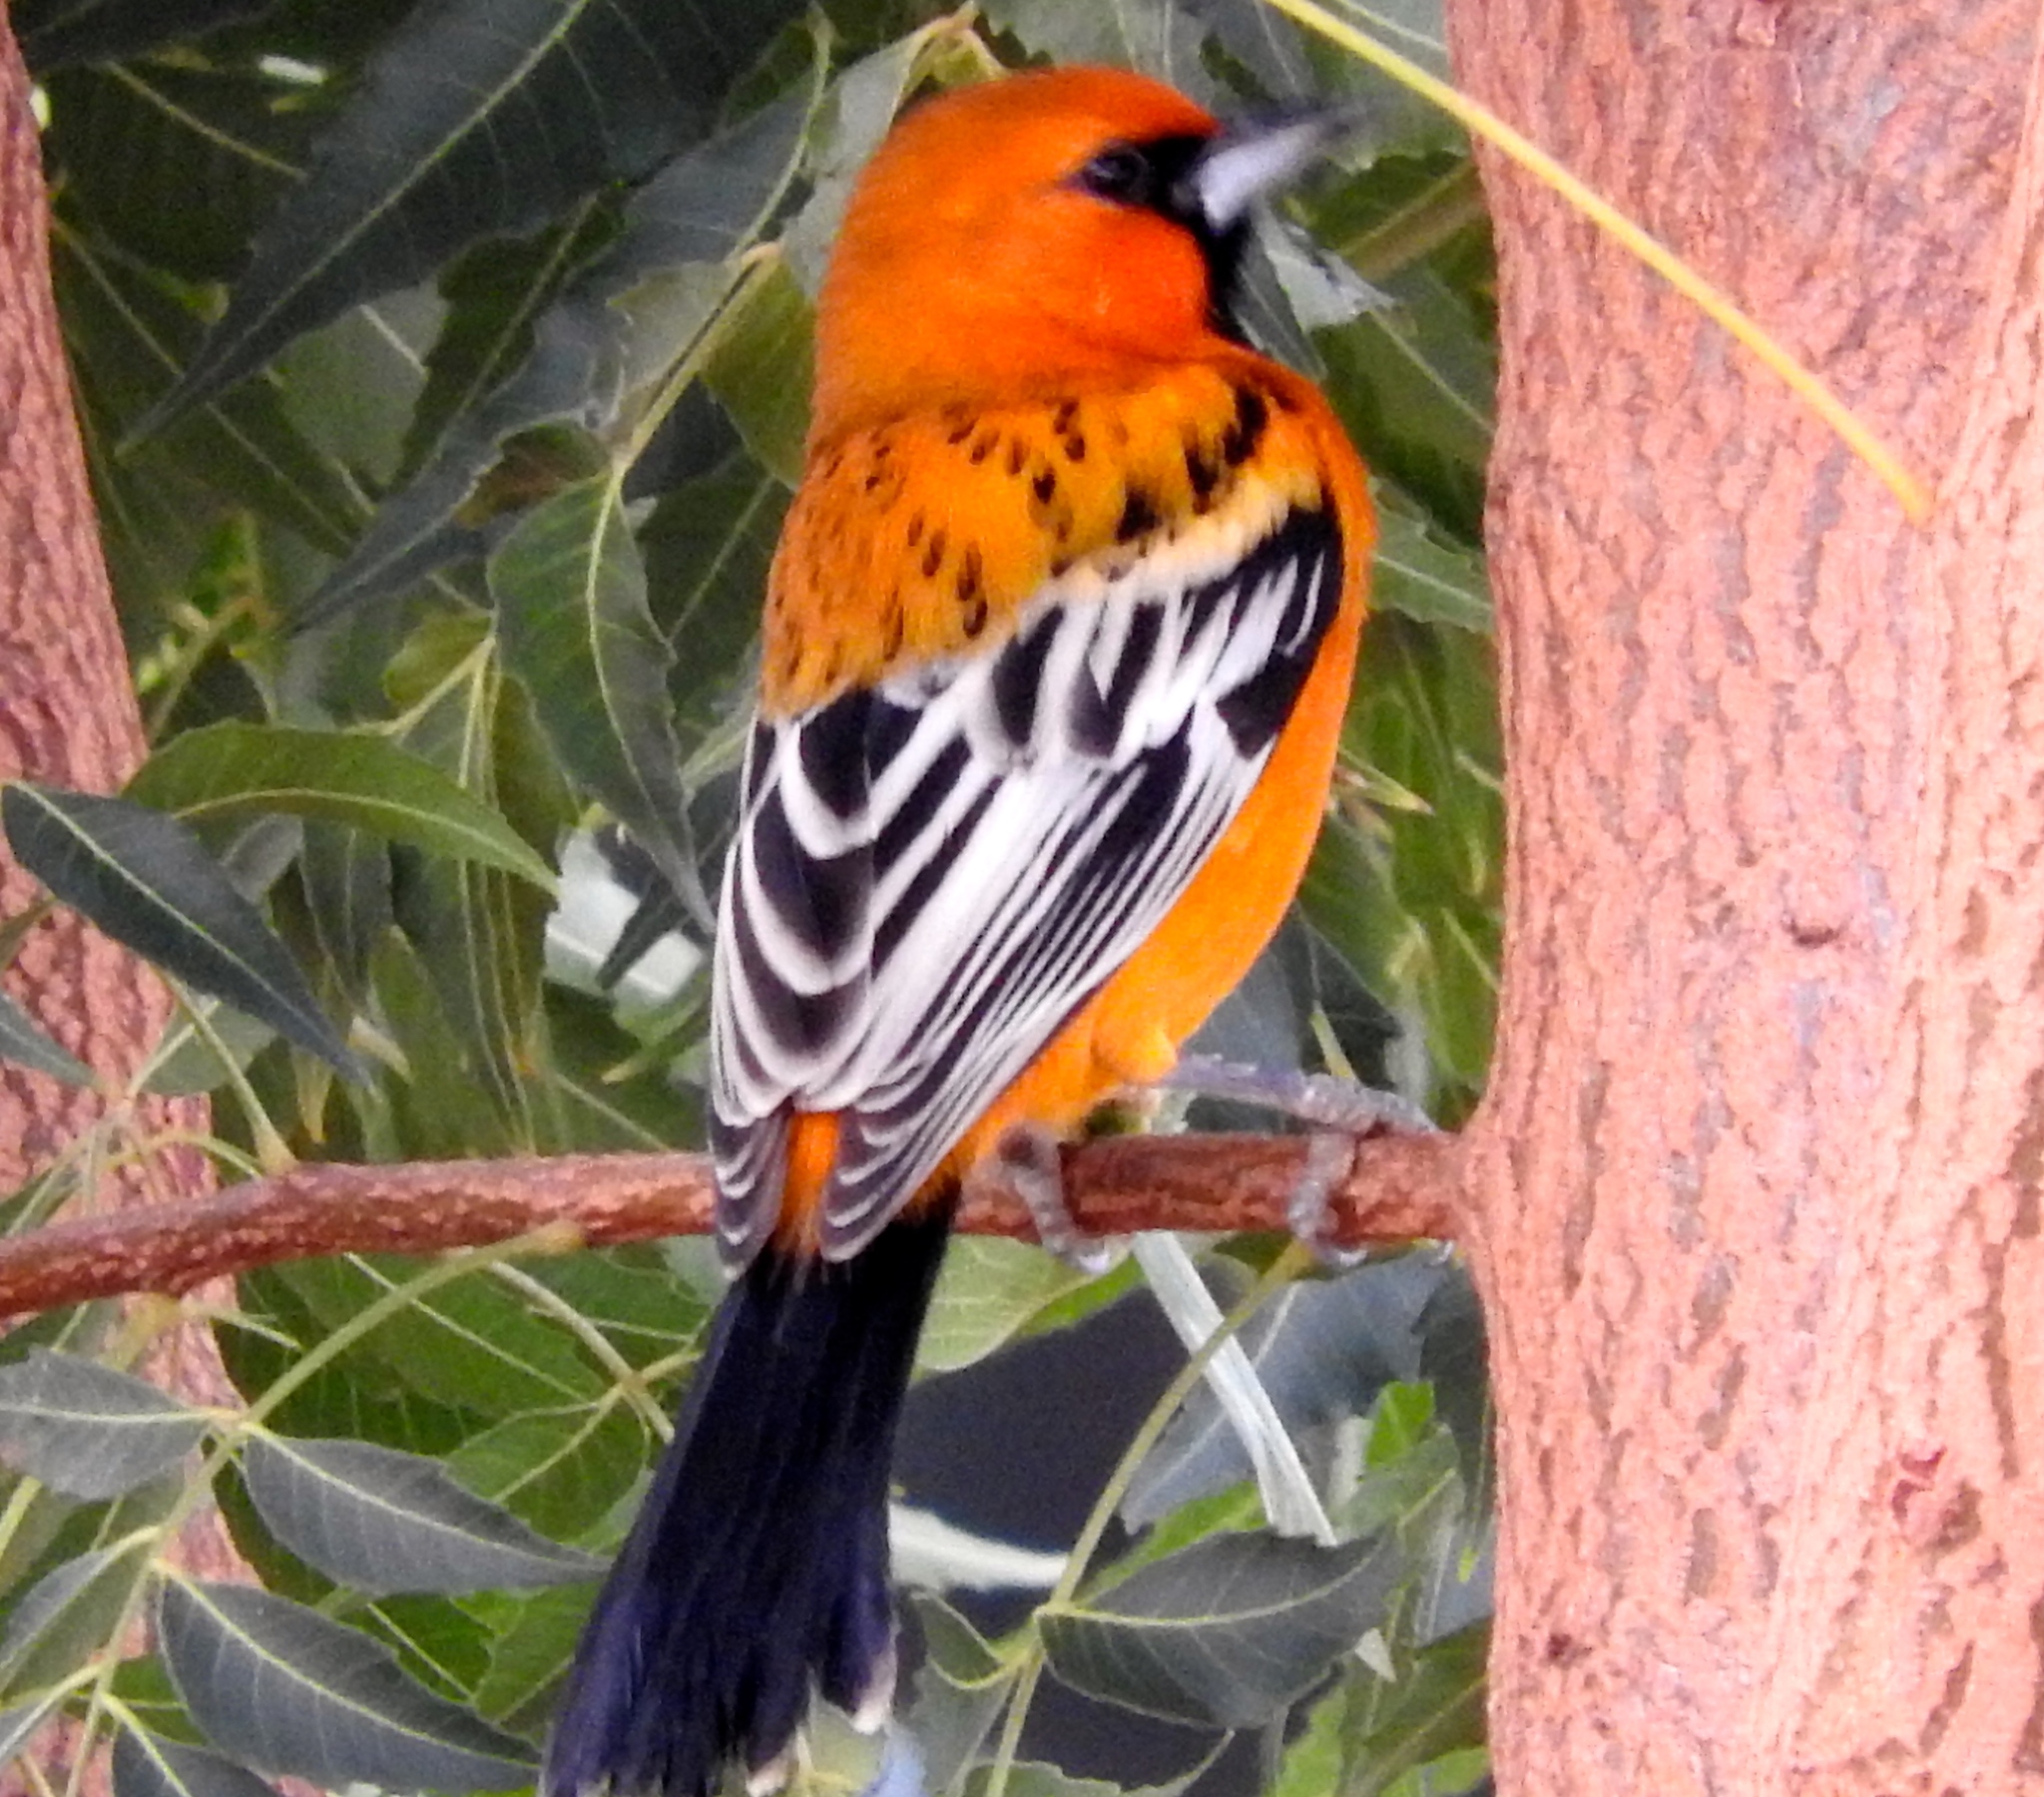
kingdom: Animalia
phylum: Chordata
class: Aves
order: Passeriformes
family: Icteridae
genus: Icterus
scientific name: Icterus pustulatus
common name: Streak-backed oriole
